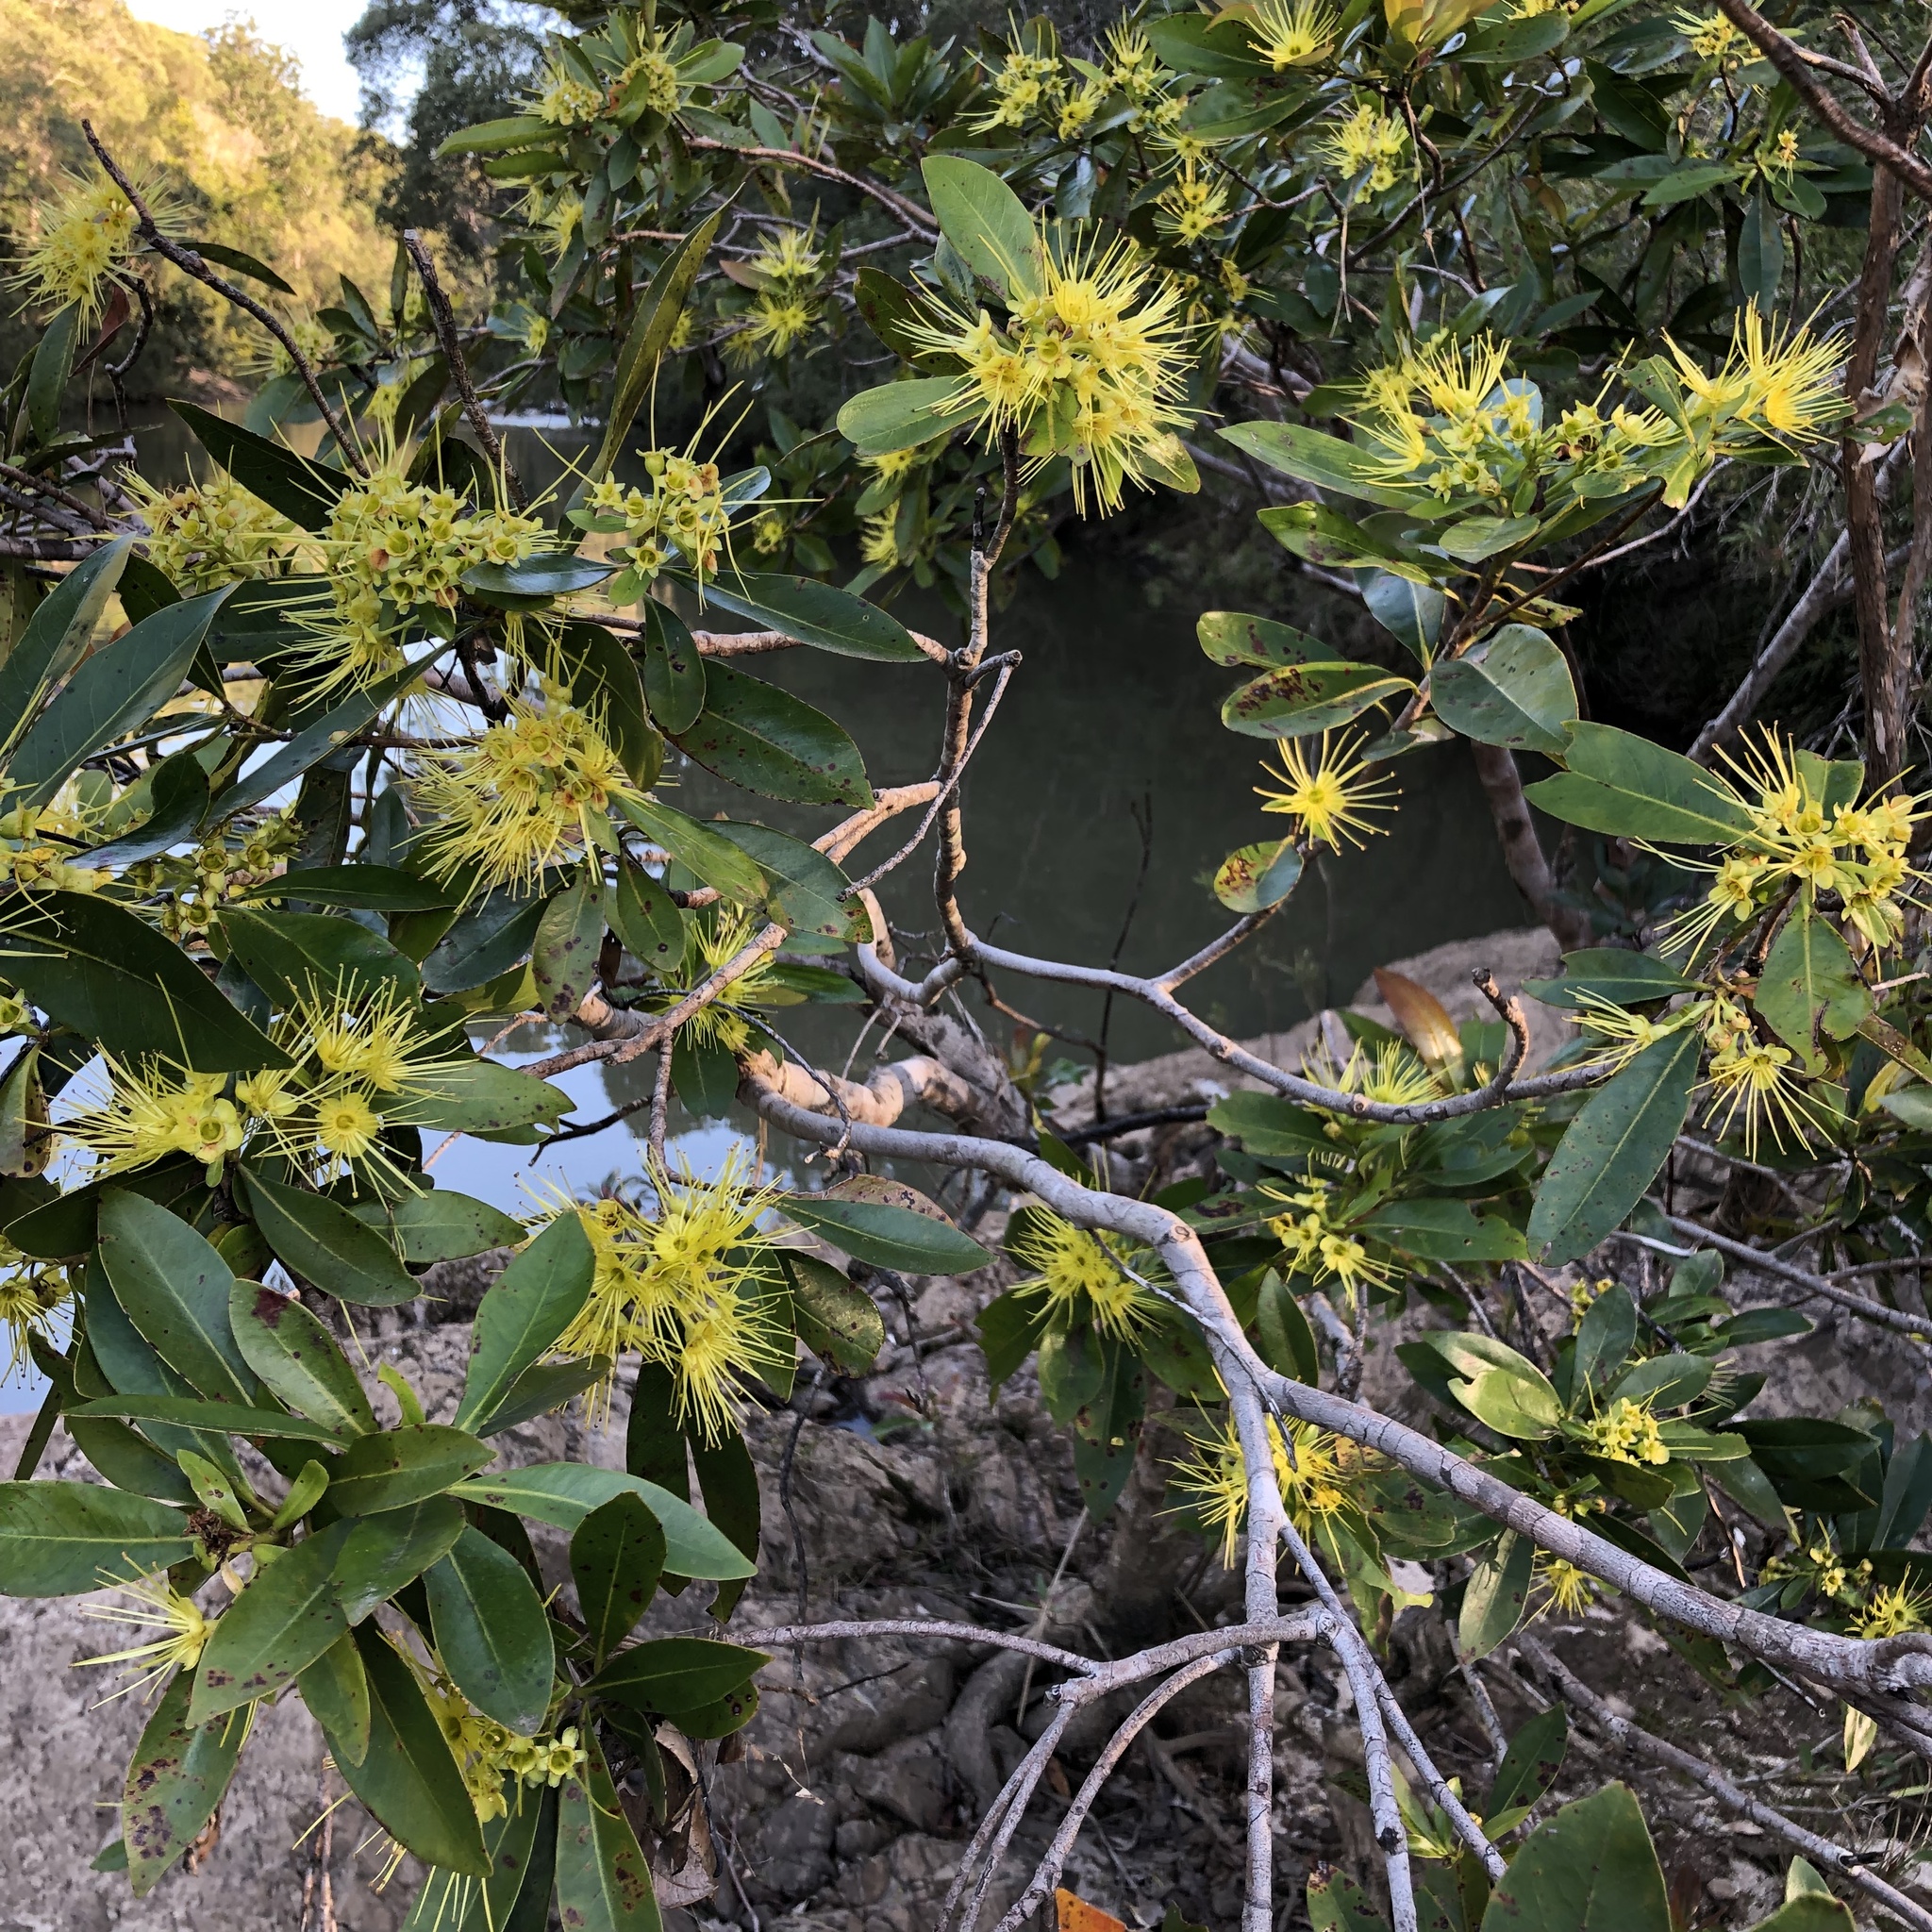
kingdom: Plantae
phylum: Tracheophyta
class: Magnoliopsida
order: Myrtales
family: Myrtaceae
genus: Xanthostemon
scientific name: Xanthostemon chrysanthus
